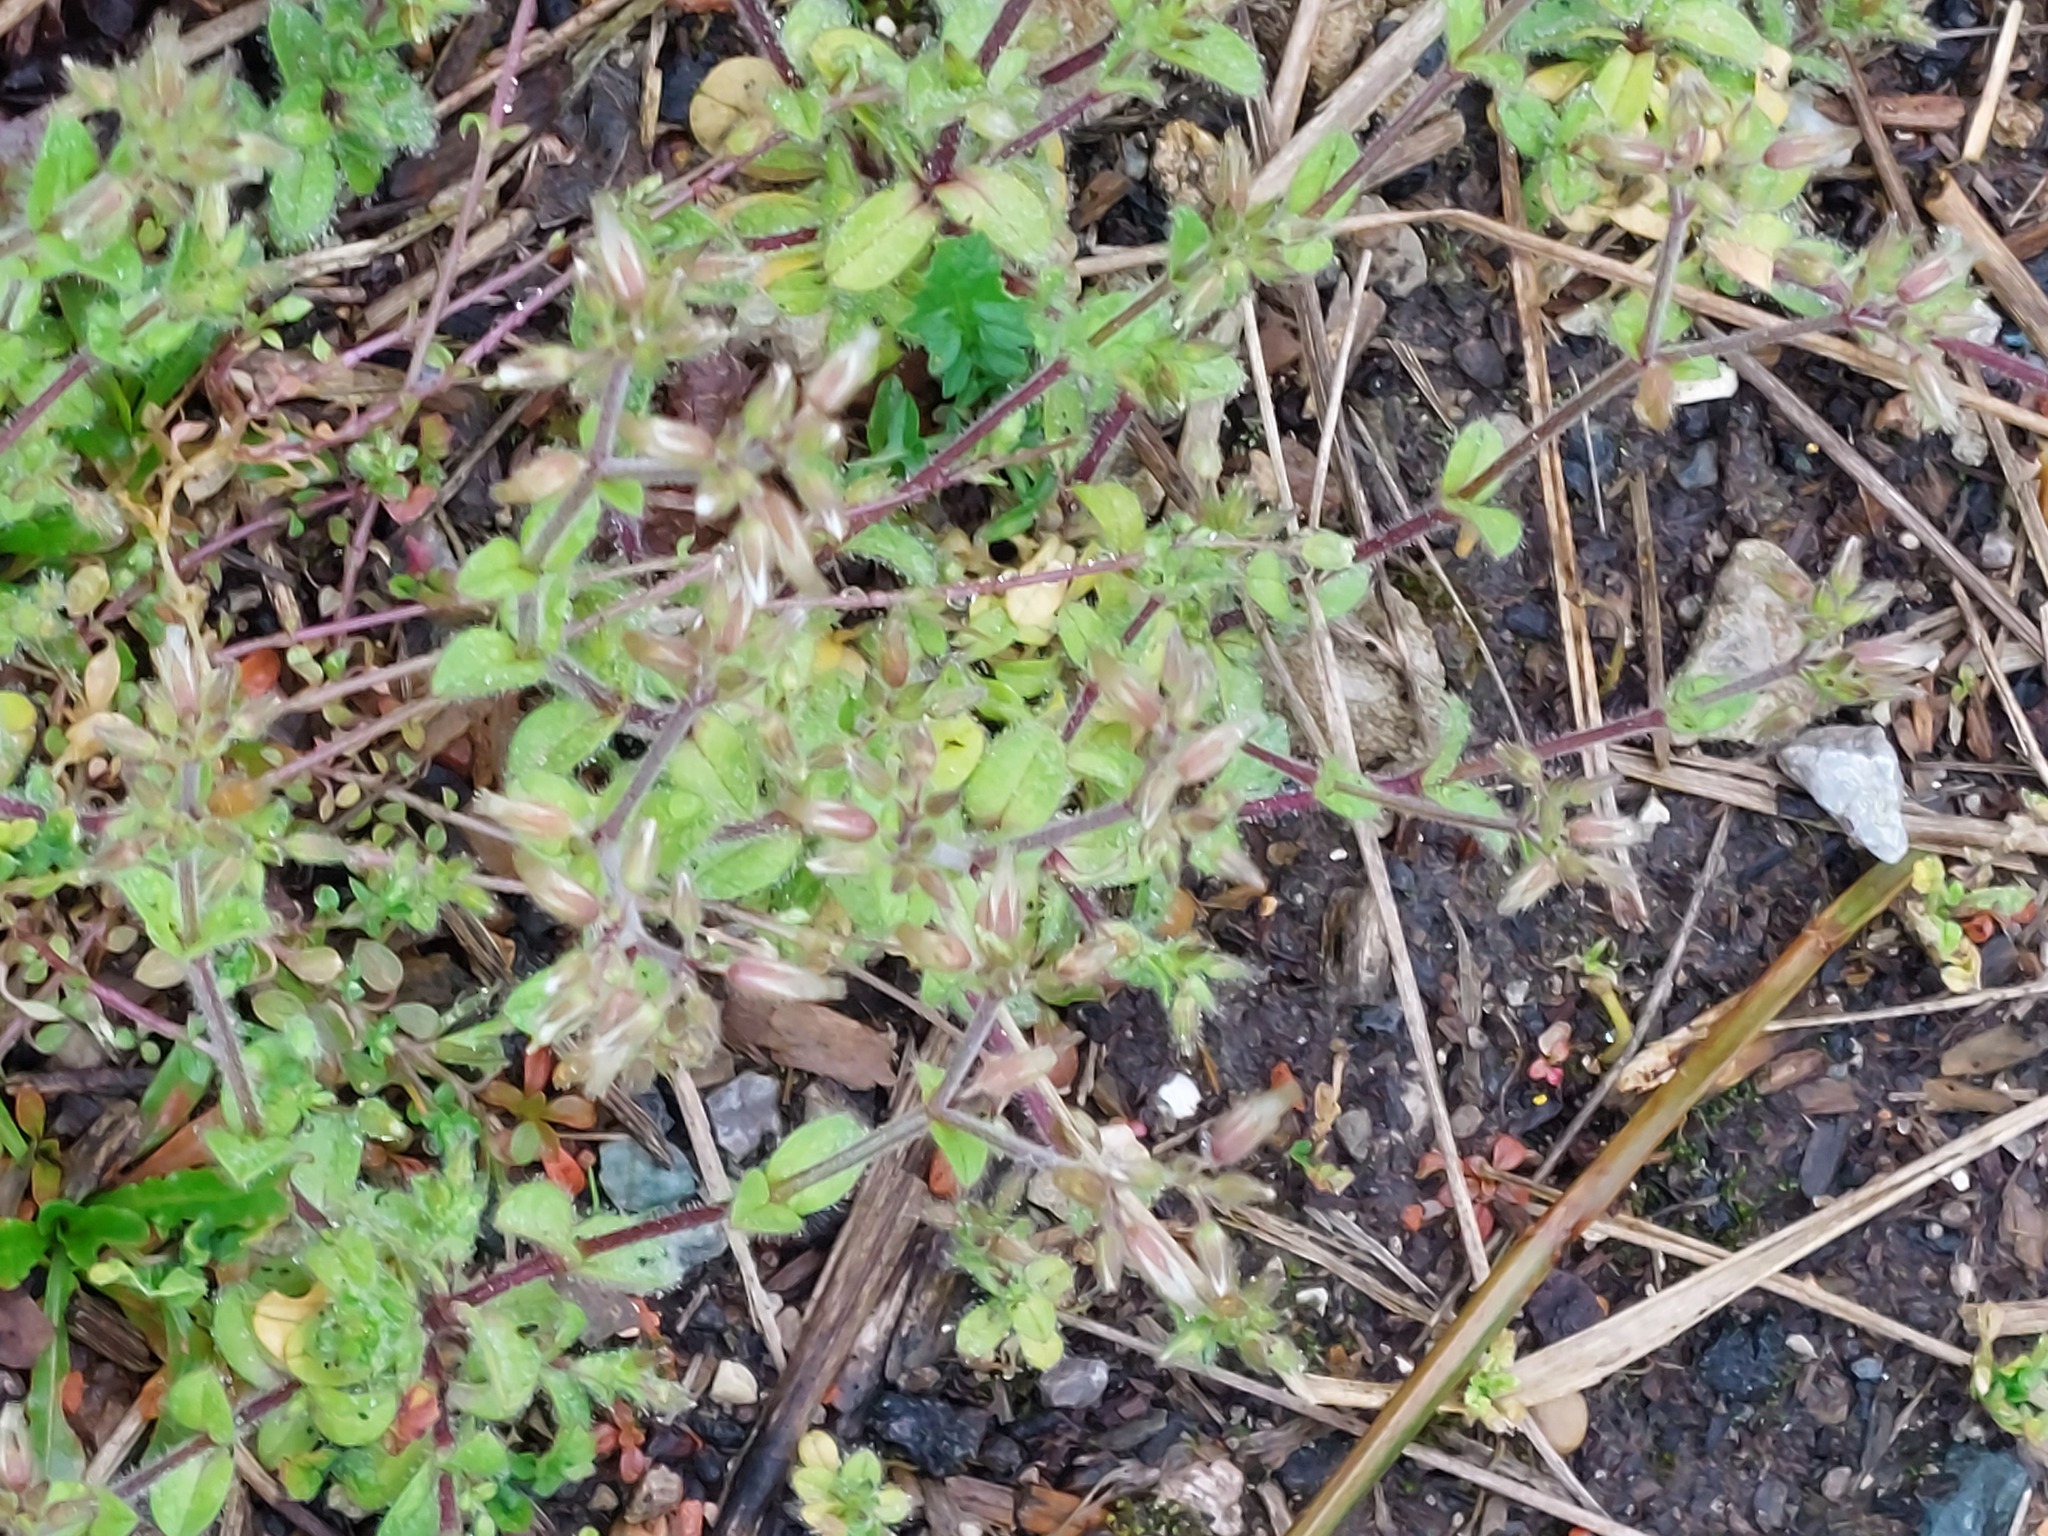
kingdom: Plantae
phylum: Tracheophyta
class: Magnoliopsida
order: Caryophyllales
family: Caryophyllaceae
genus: Cerastium
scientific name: Cerastium glomeratum
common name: Sticky chickweed
